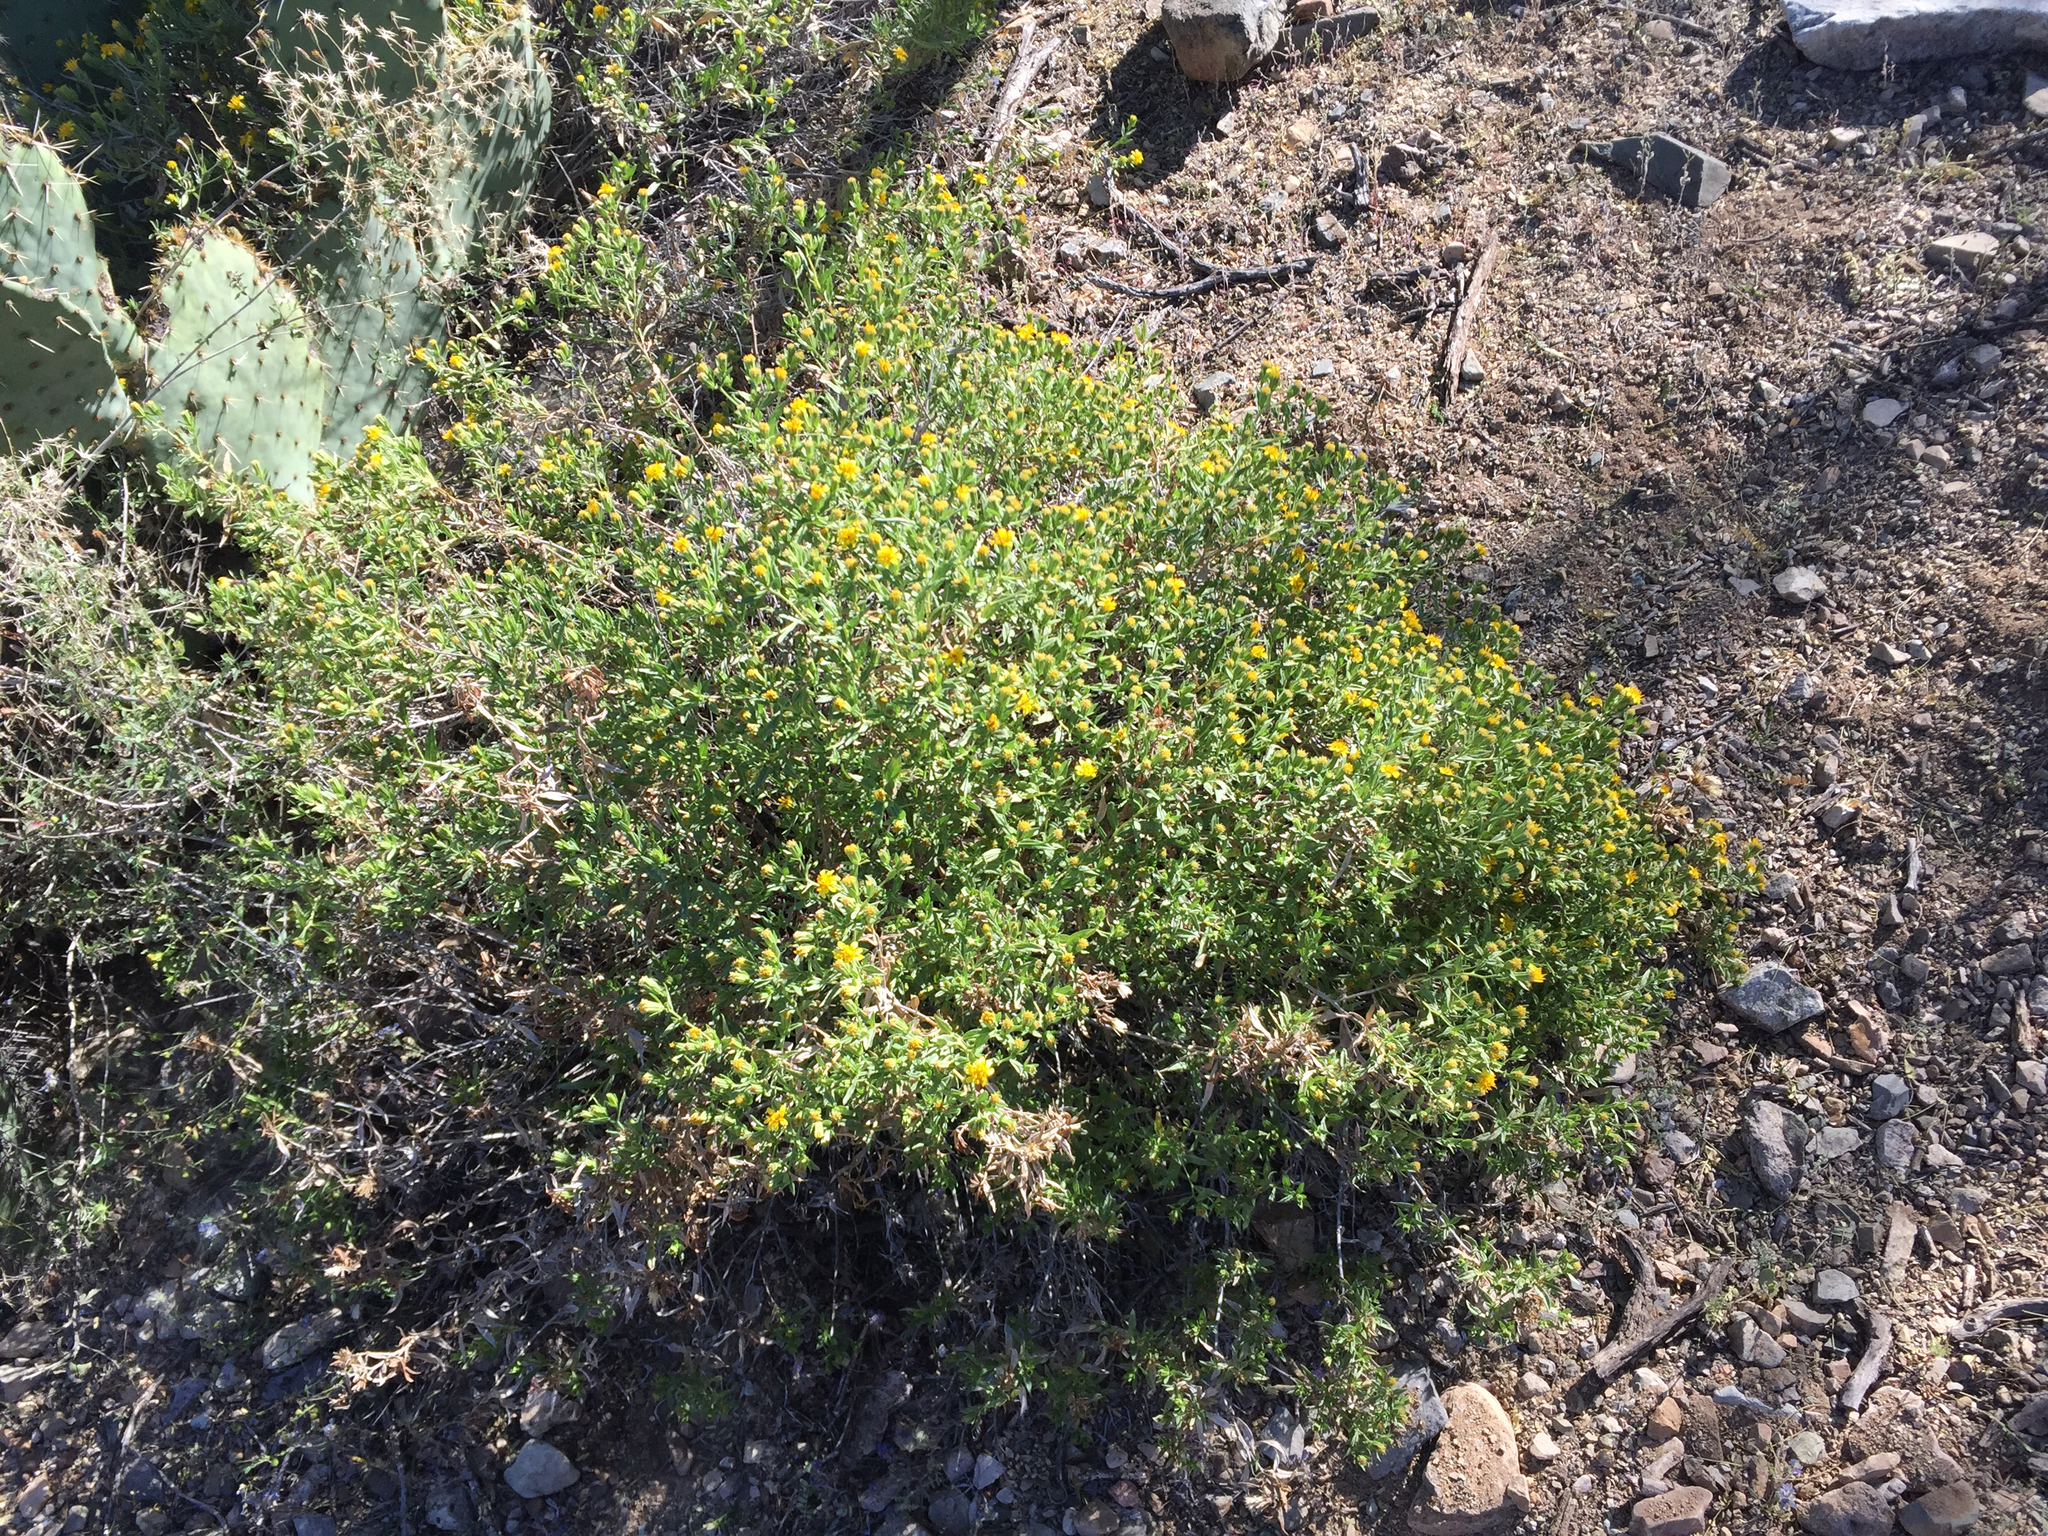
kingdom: Plantae
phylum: Tracheophyta
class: Magnoliopsida
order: Asterales
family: Asteraceae
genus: Trixis
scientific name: Trixis californica
